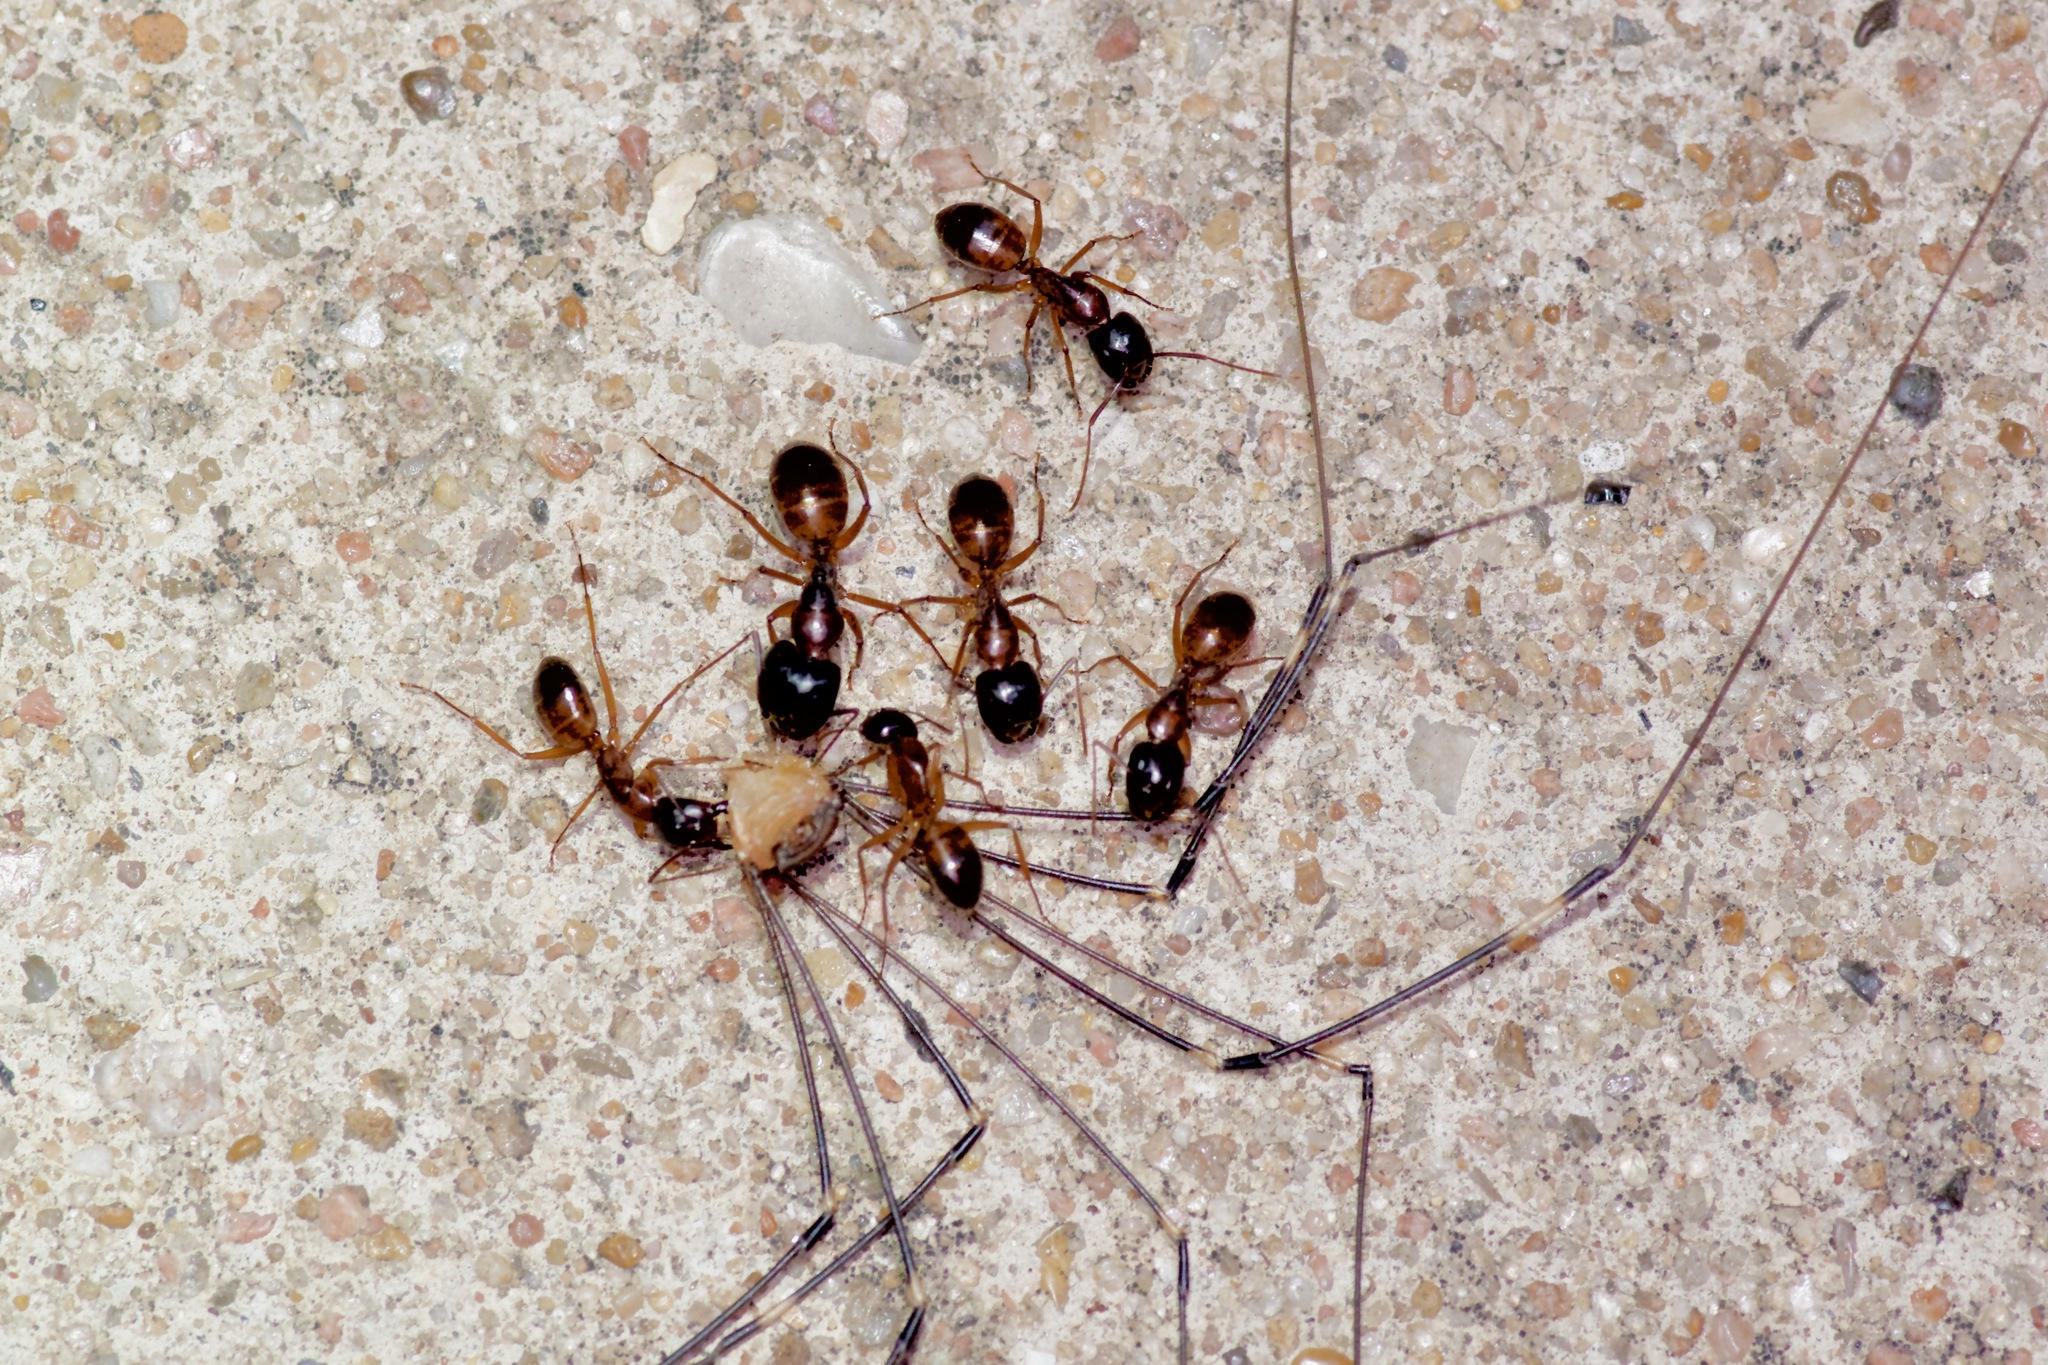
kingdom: Animalia
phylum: Arthropoda
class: Insecta
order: Hymenoptera
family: Formicidae
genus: Camponotus
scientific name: Camponotus sansabeanus
